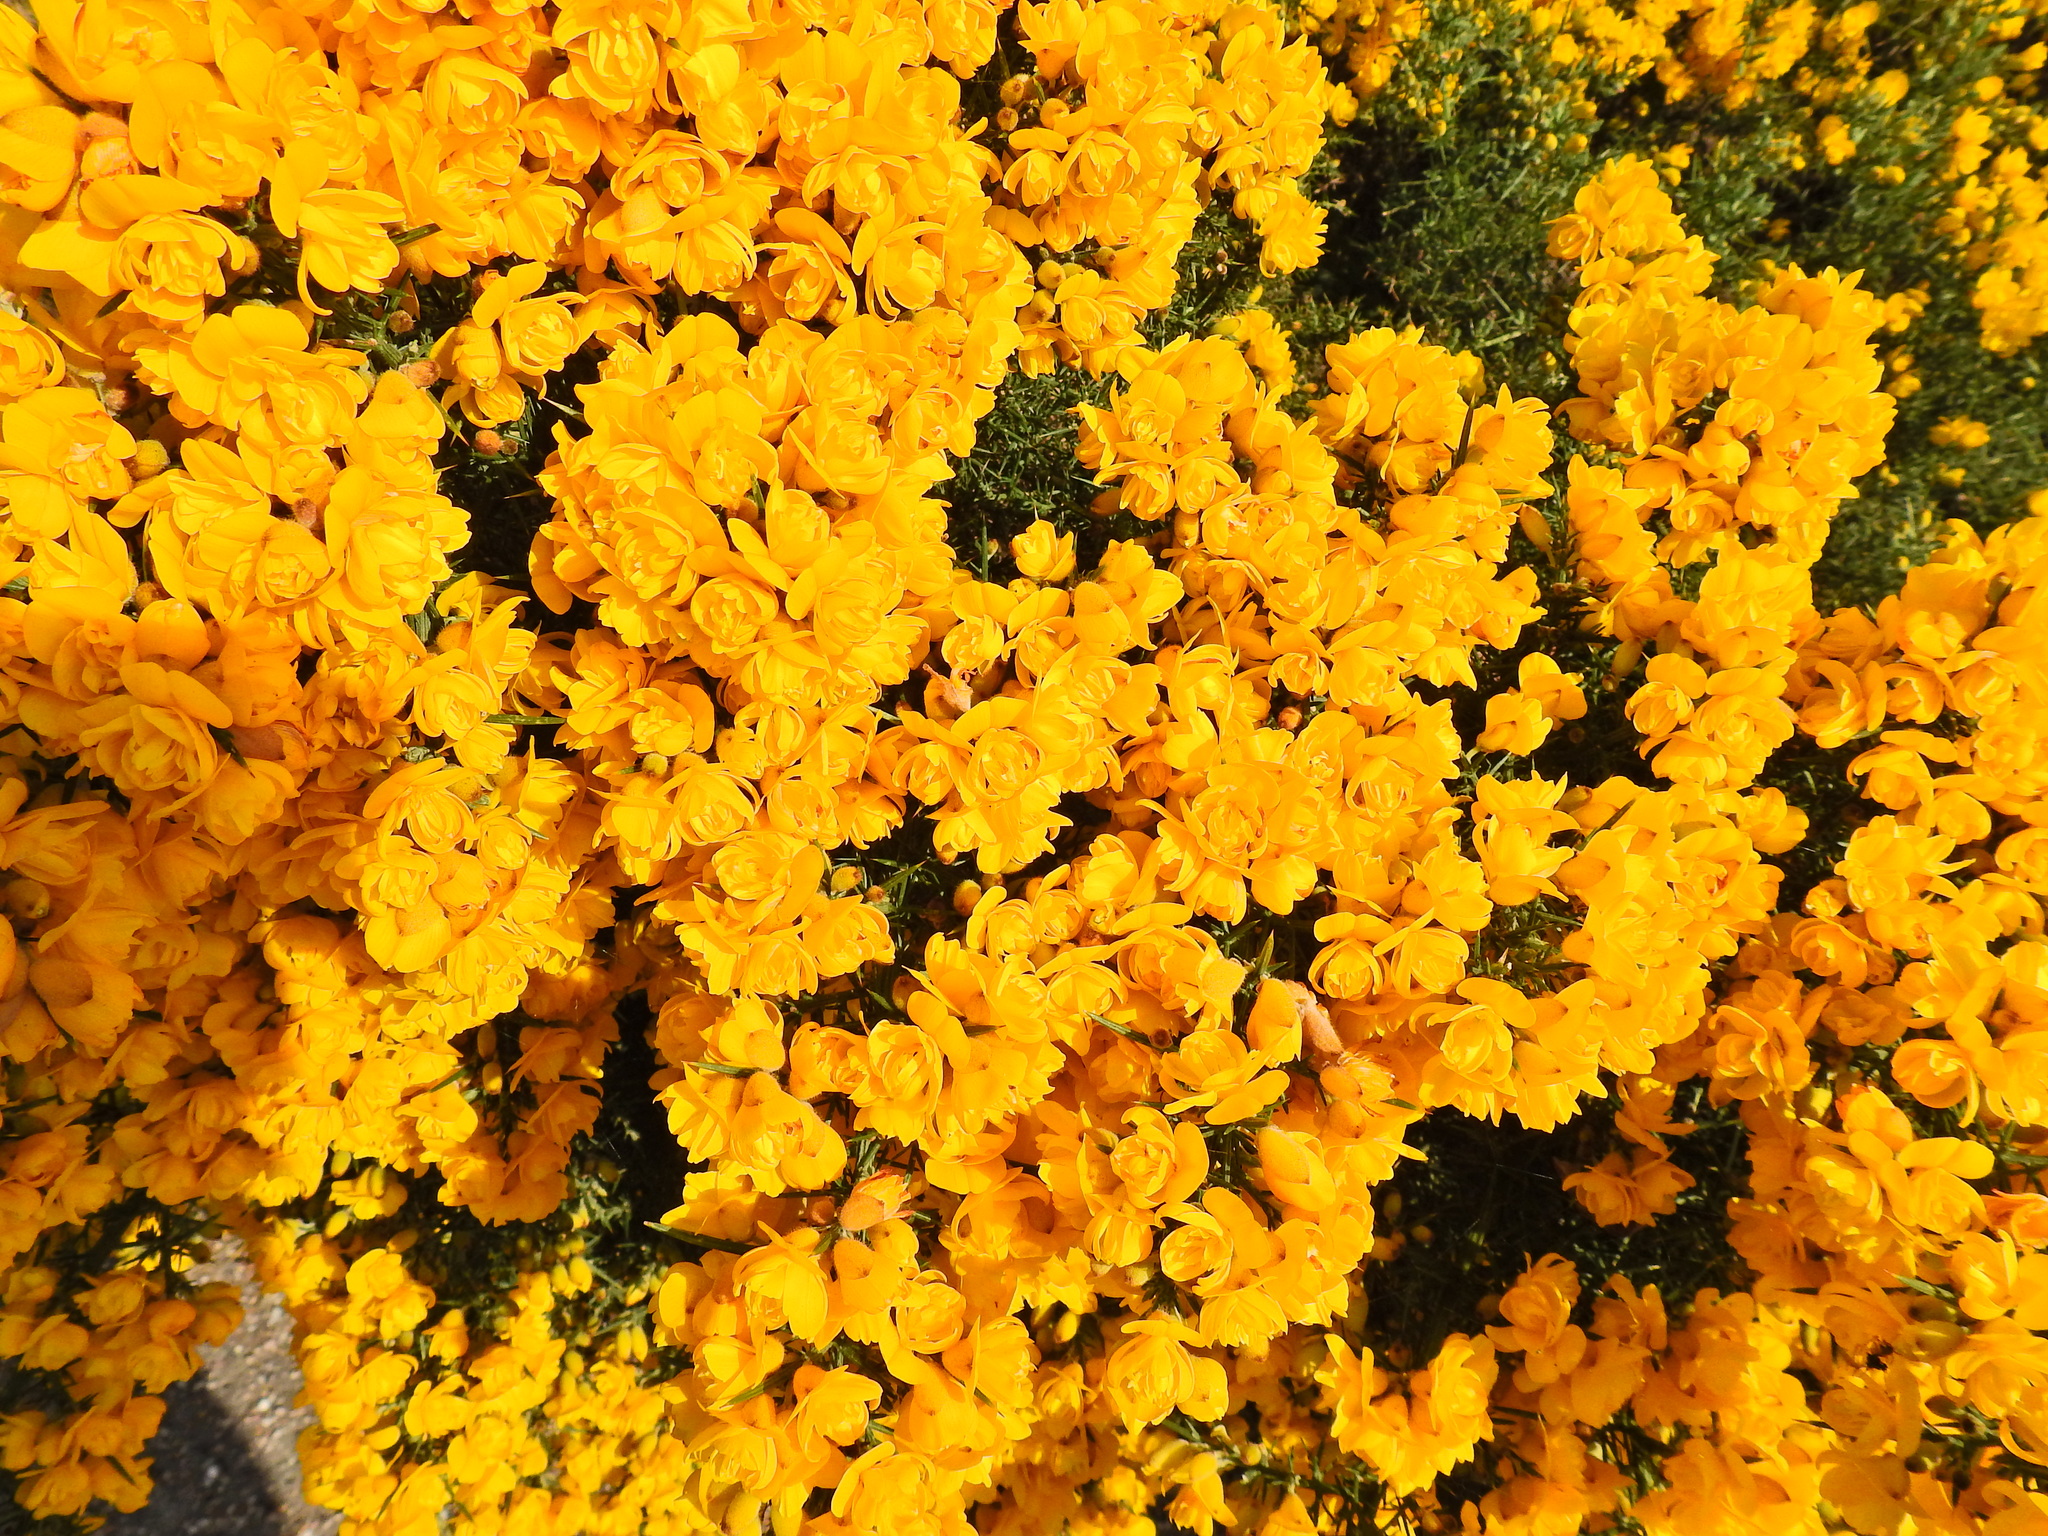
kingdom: Plantae
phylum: Tracheophyta
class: Magnoliopsida
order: Fabales
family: Fabaceae
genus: Ulex
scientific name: Ulex europaeus
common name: Common gorse
